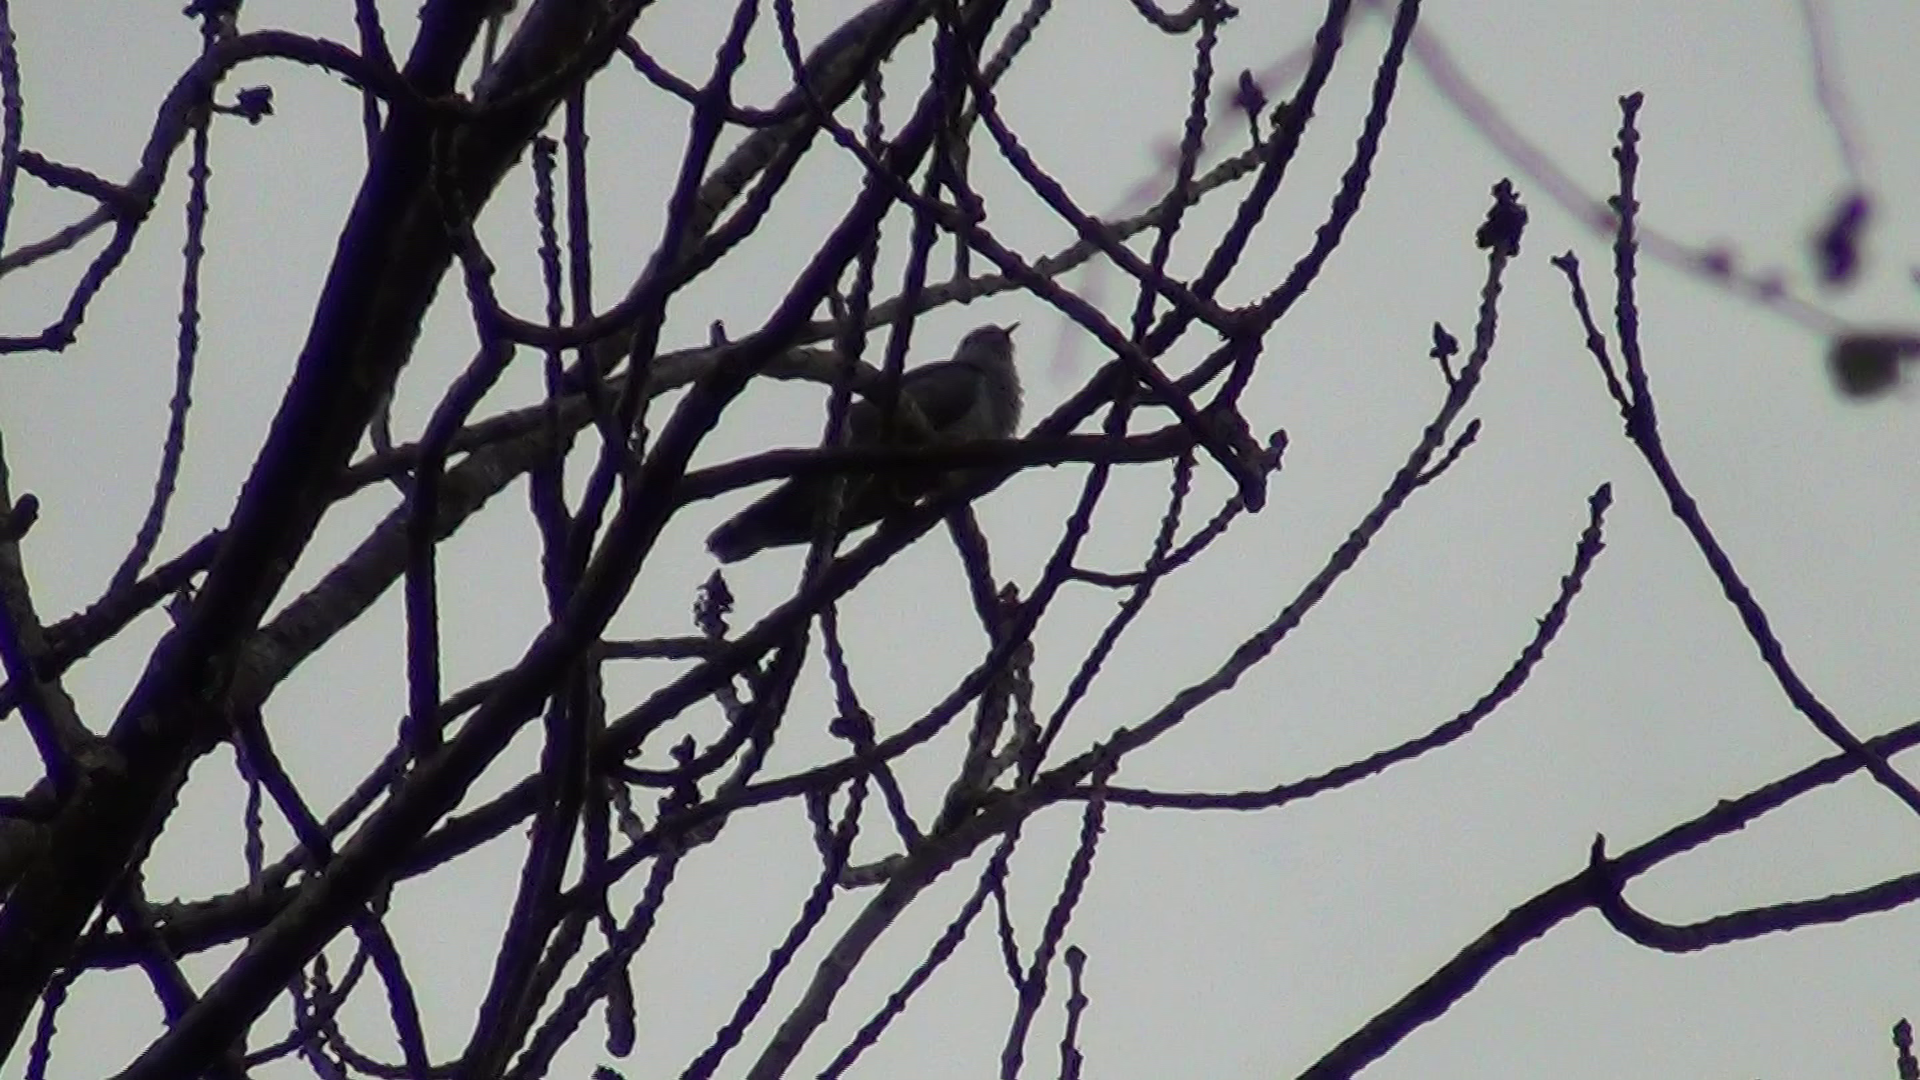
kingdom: Animalia
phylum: Chordata
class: Aves
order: Cuculiformes
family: Cuculidae
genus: Cuculus
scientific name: Cuculus canorus
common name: Common cuckoo
